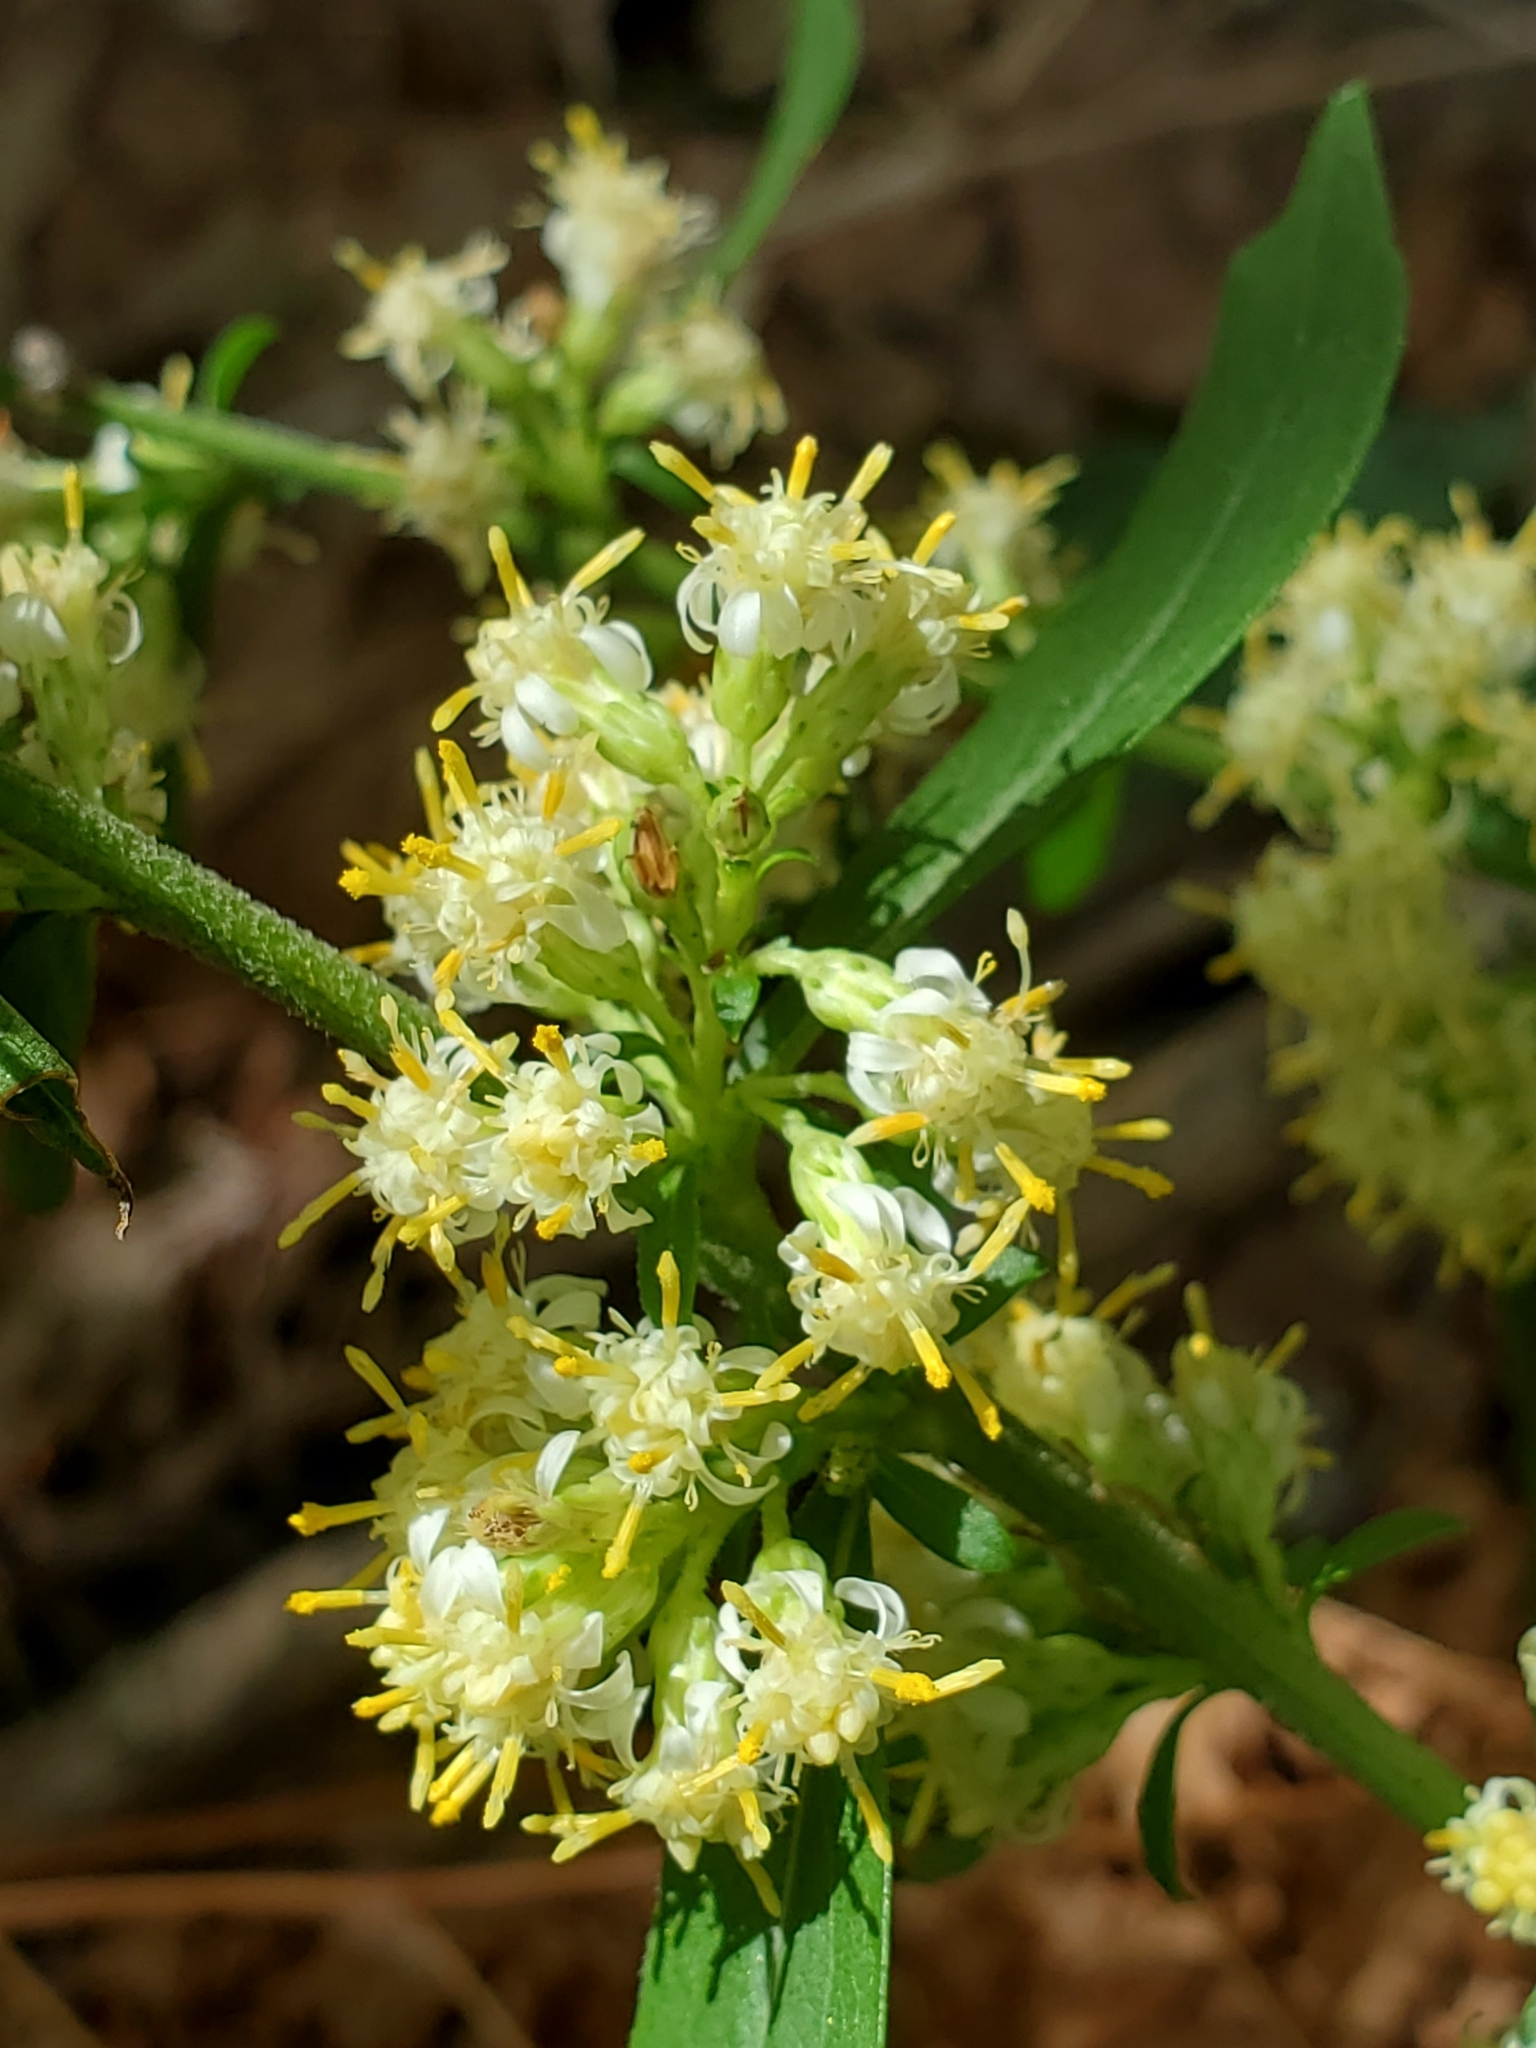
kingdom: Plantae
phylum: Tracheophyta
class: Magnoliopsida
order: Asterales
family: Asteraceae
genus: Solidago
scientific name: Solidago bicolor
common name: Silverrod
